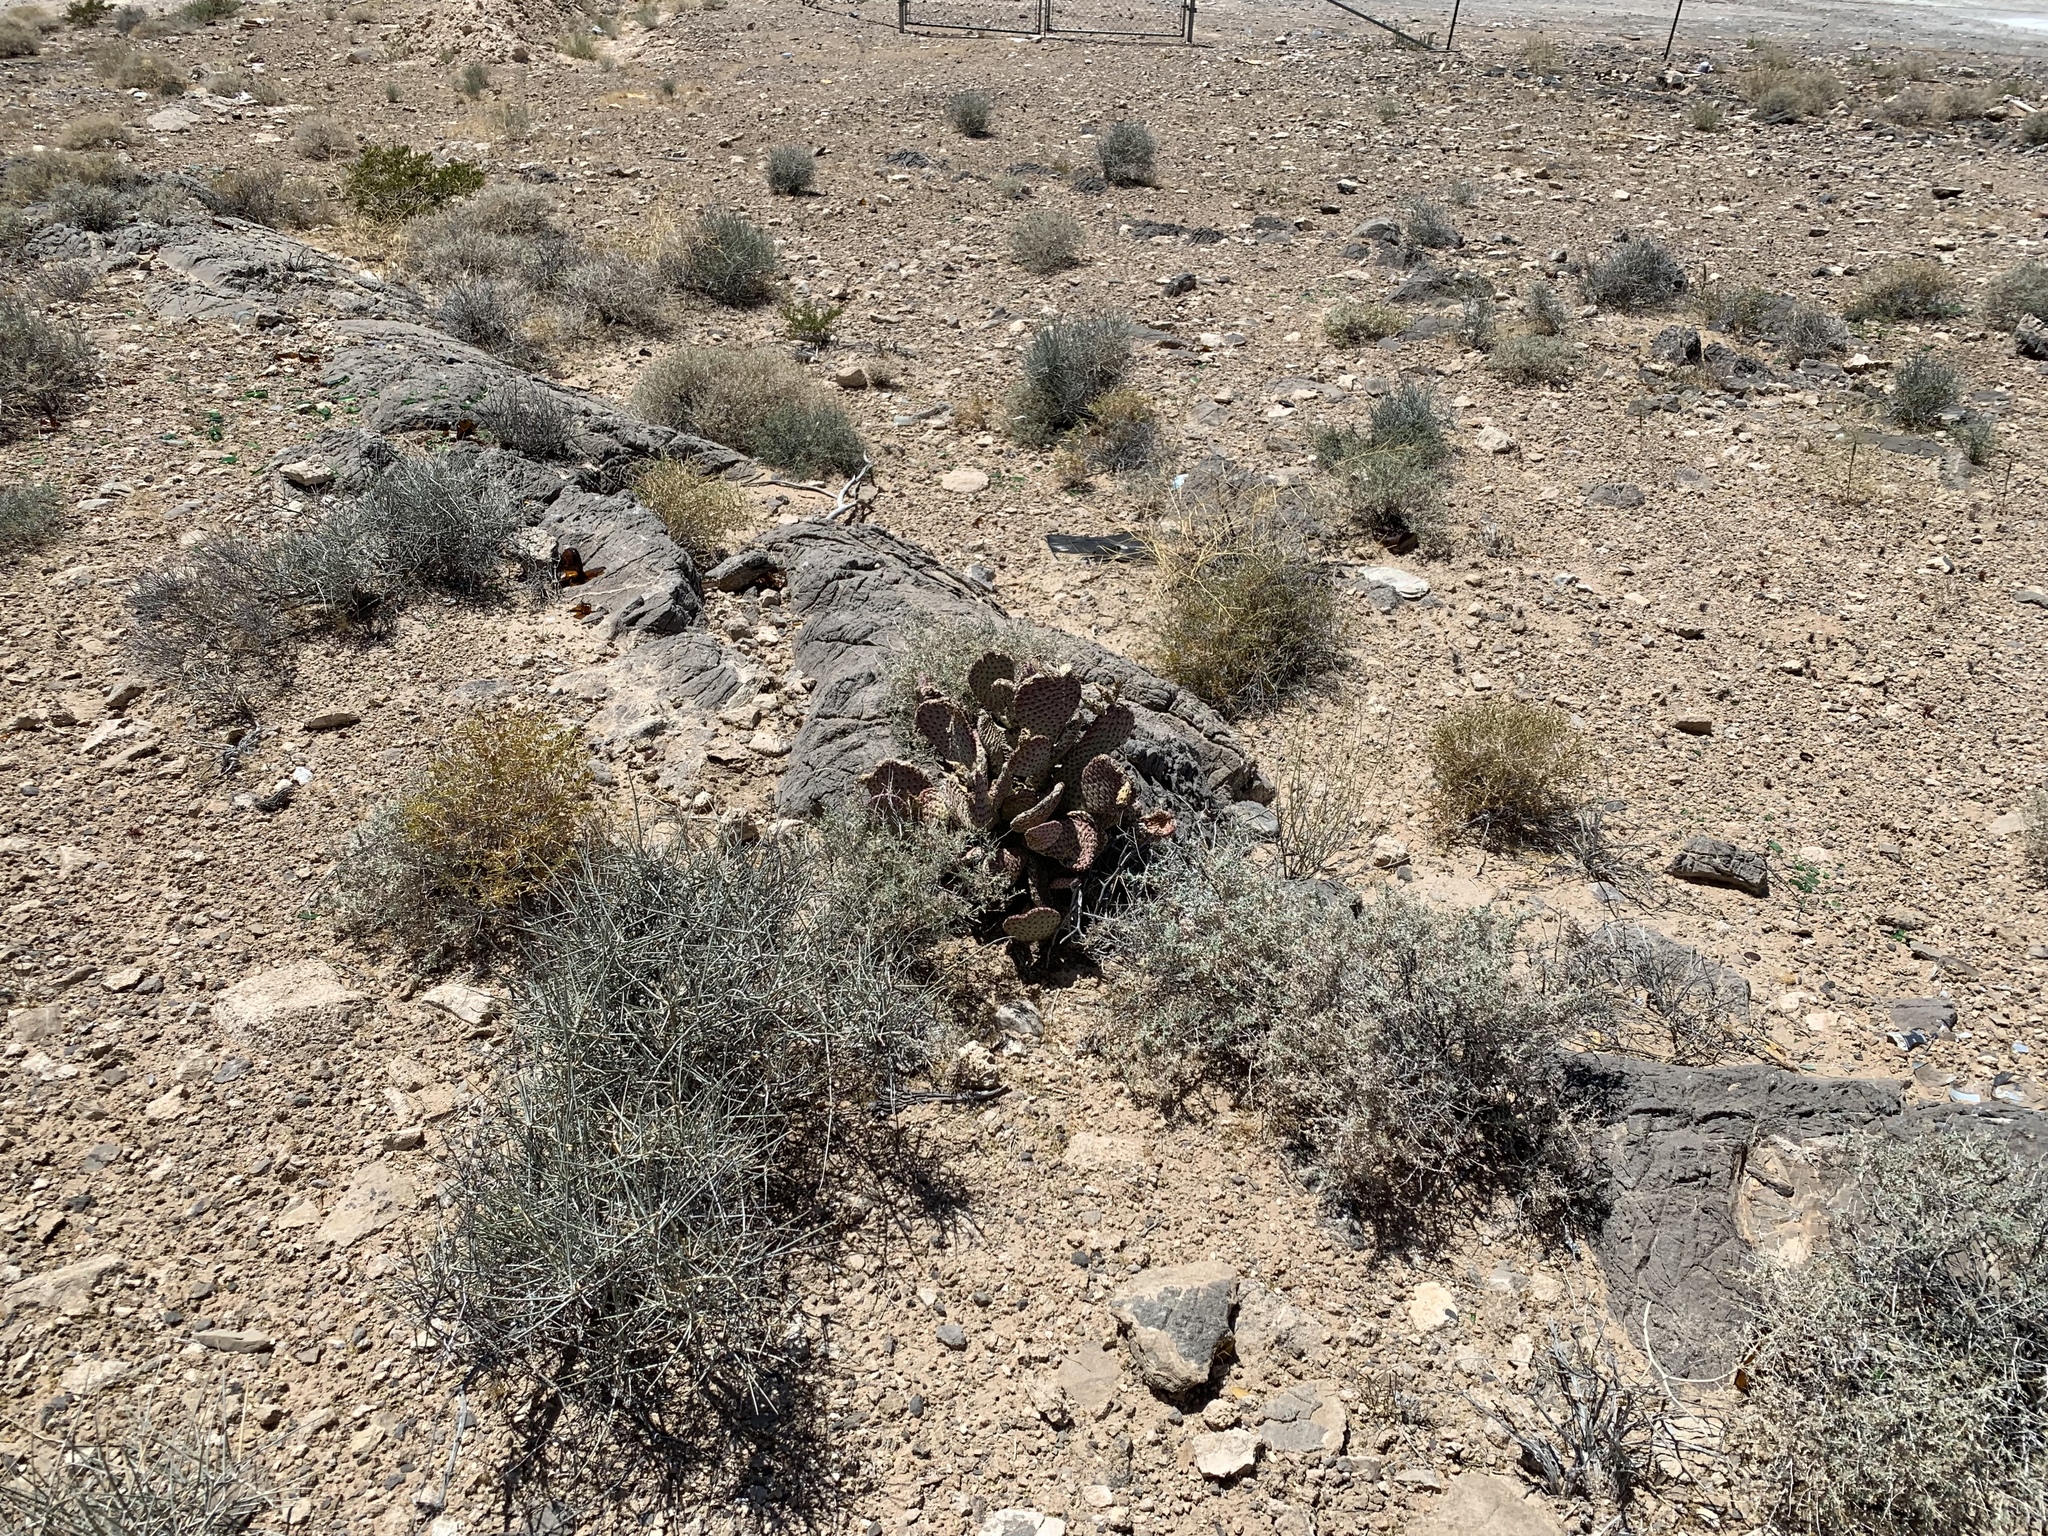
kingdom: Plantae
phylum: Tracheophyta
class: Magnoliopsida
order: Caryophyllales
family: Cactaceae
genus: Opuntia
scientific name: Opuntia basilaris
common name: Beavertail prickly-pear
